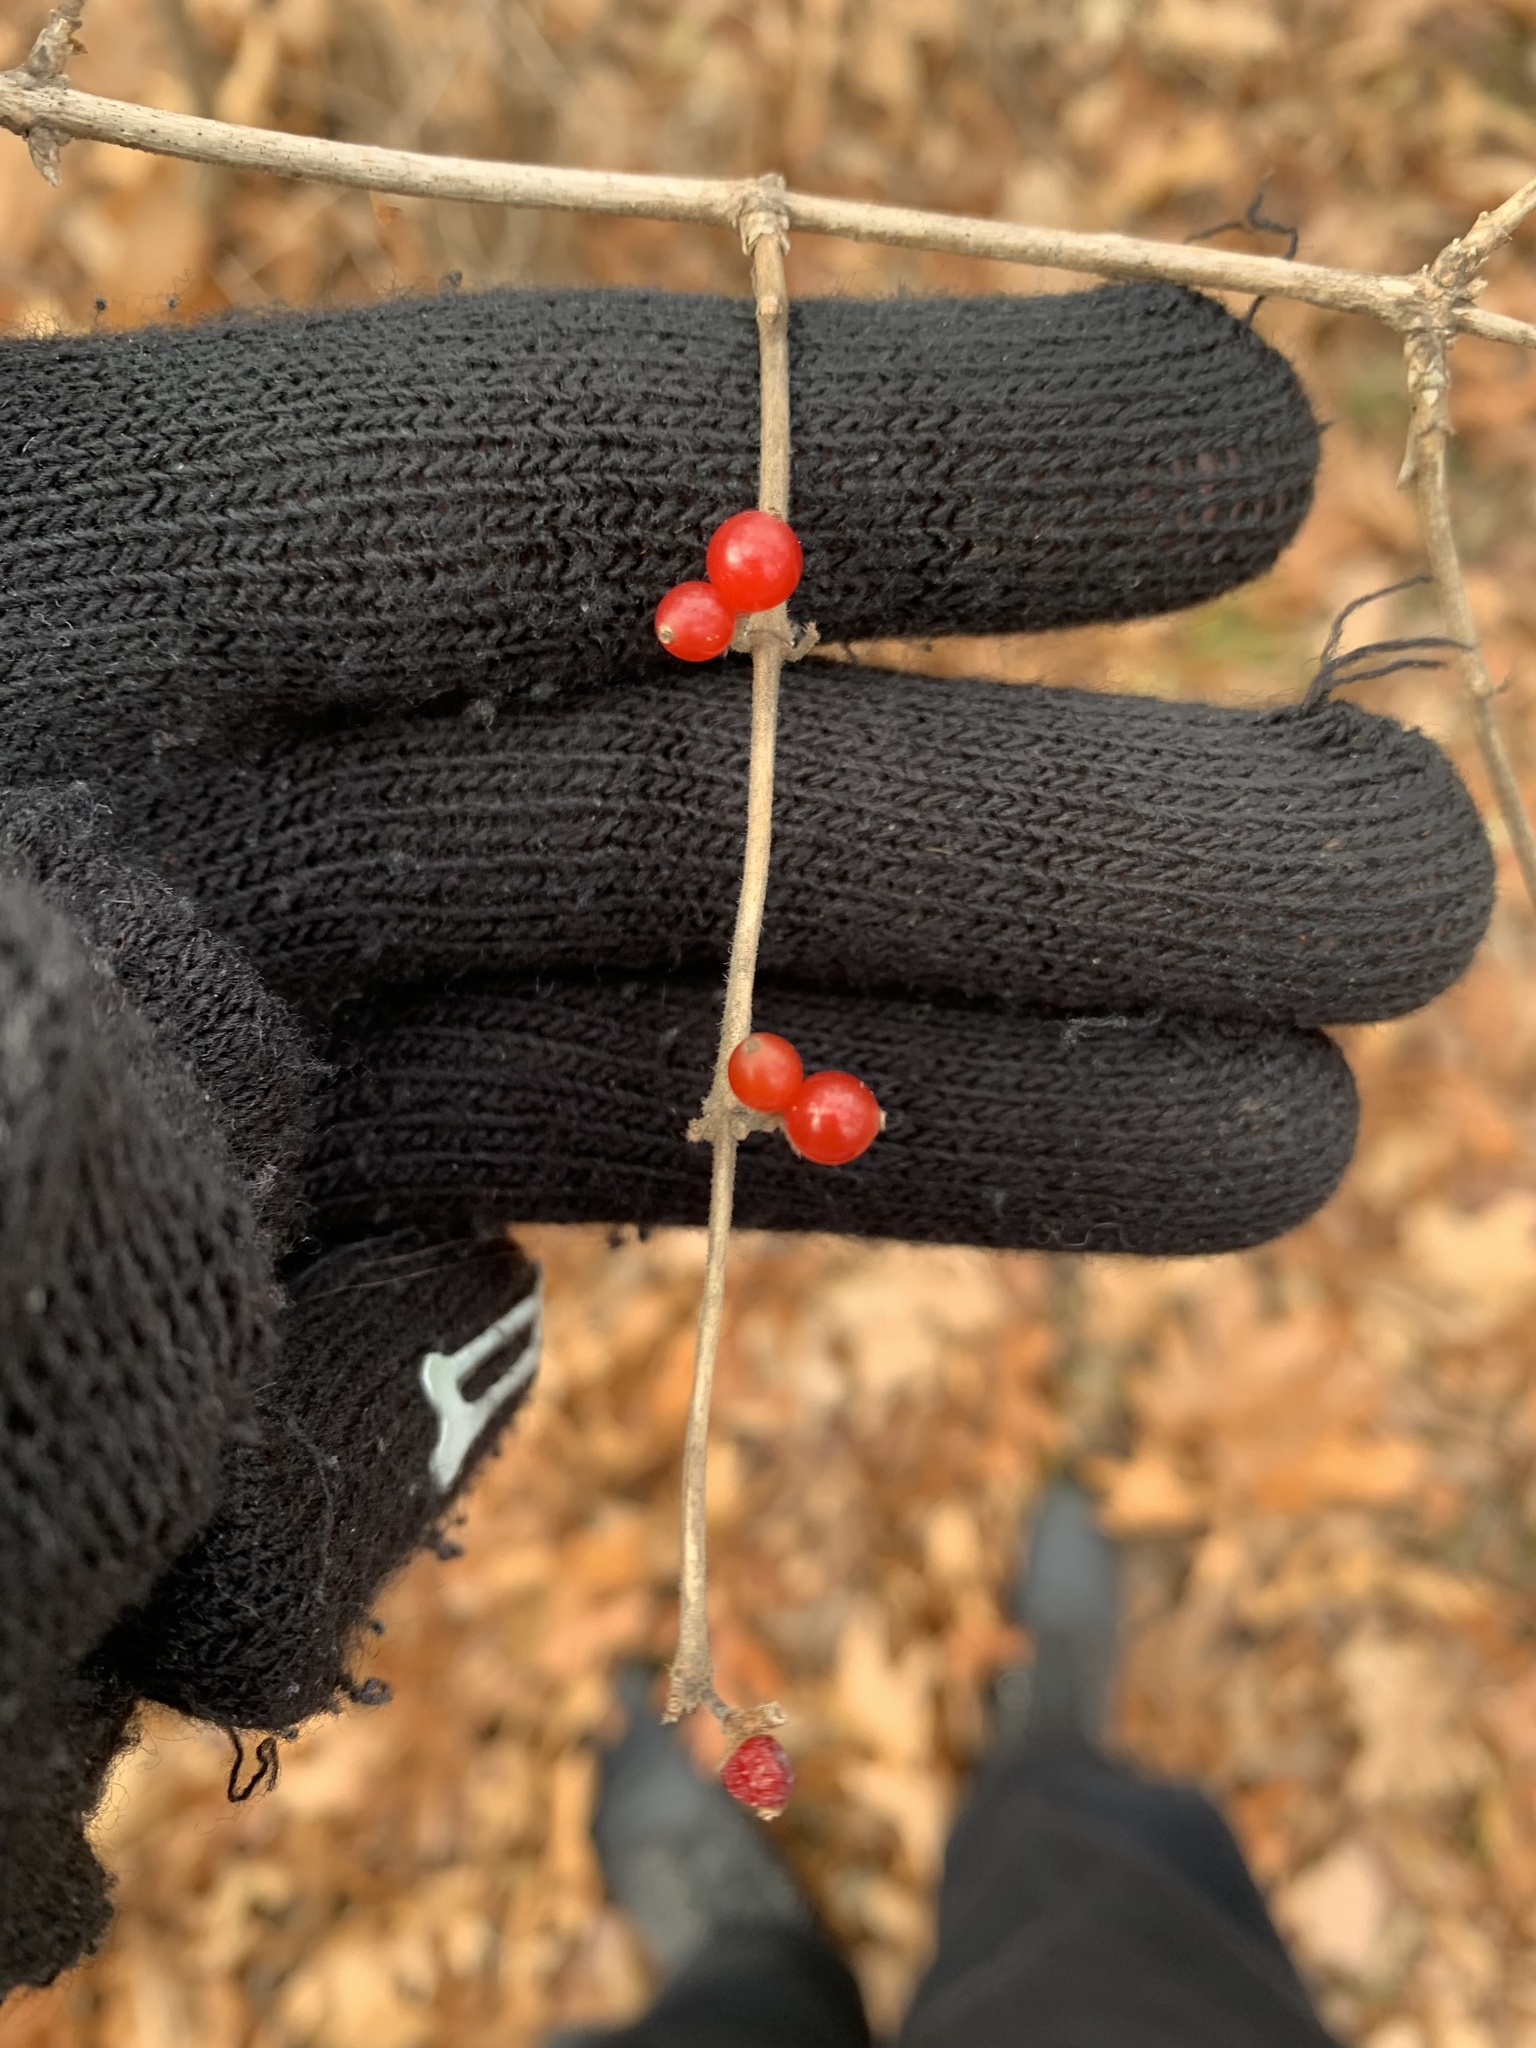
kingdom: Plantae
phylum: Tracheophyta
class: Magnoliopsida
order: Dipsacales
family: Caprifoliaceae
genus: Lonicera
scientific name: Lonicera maackii
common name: Amur honeysuckle
